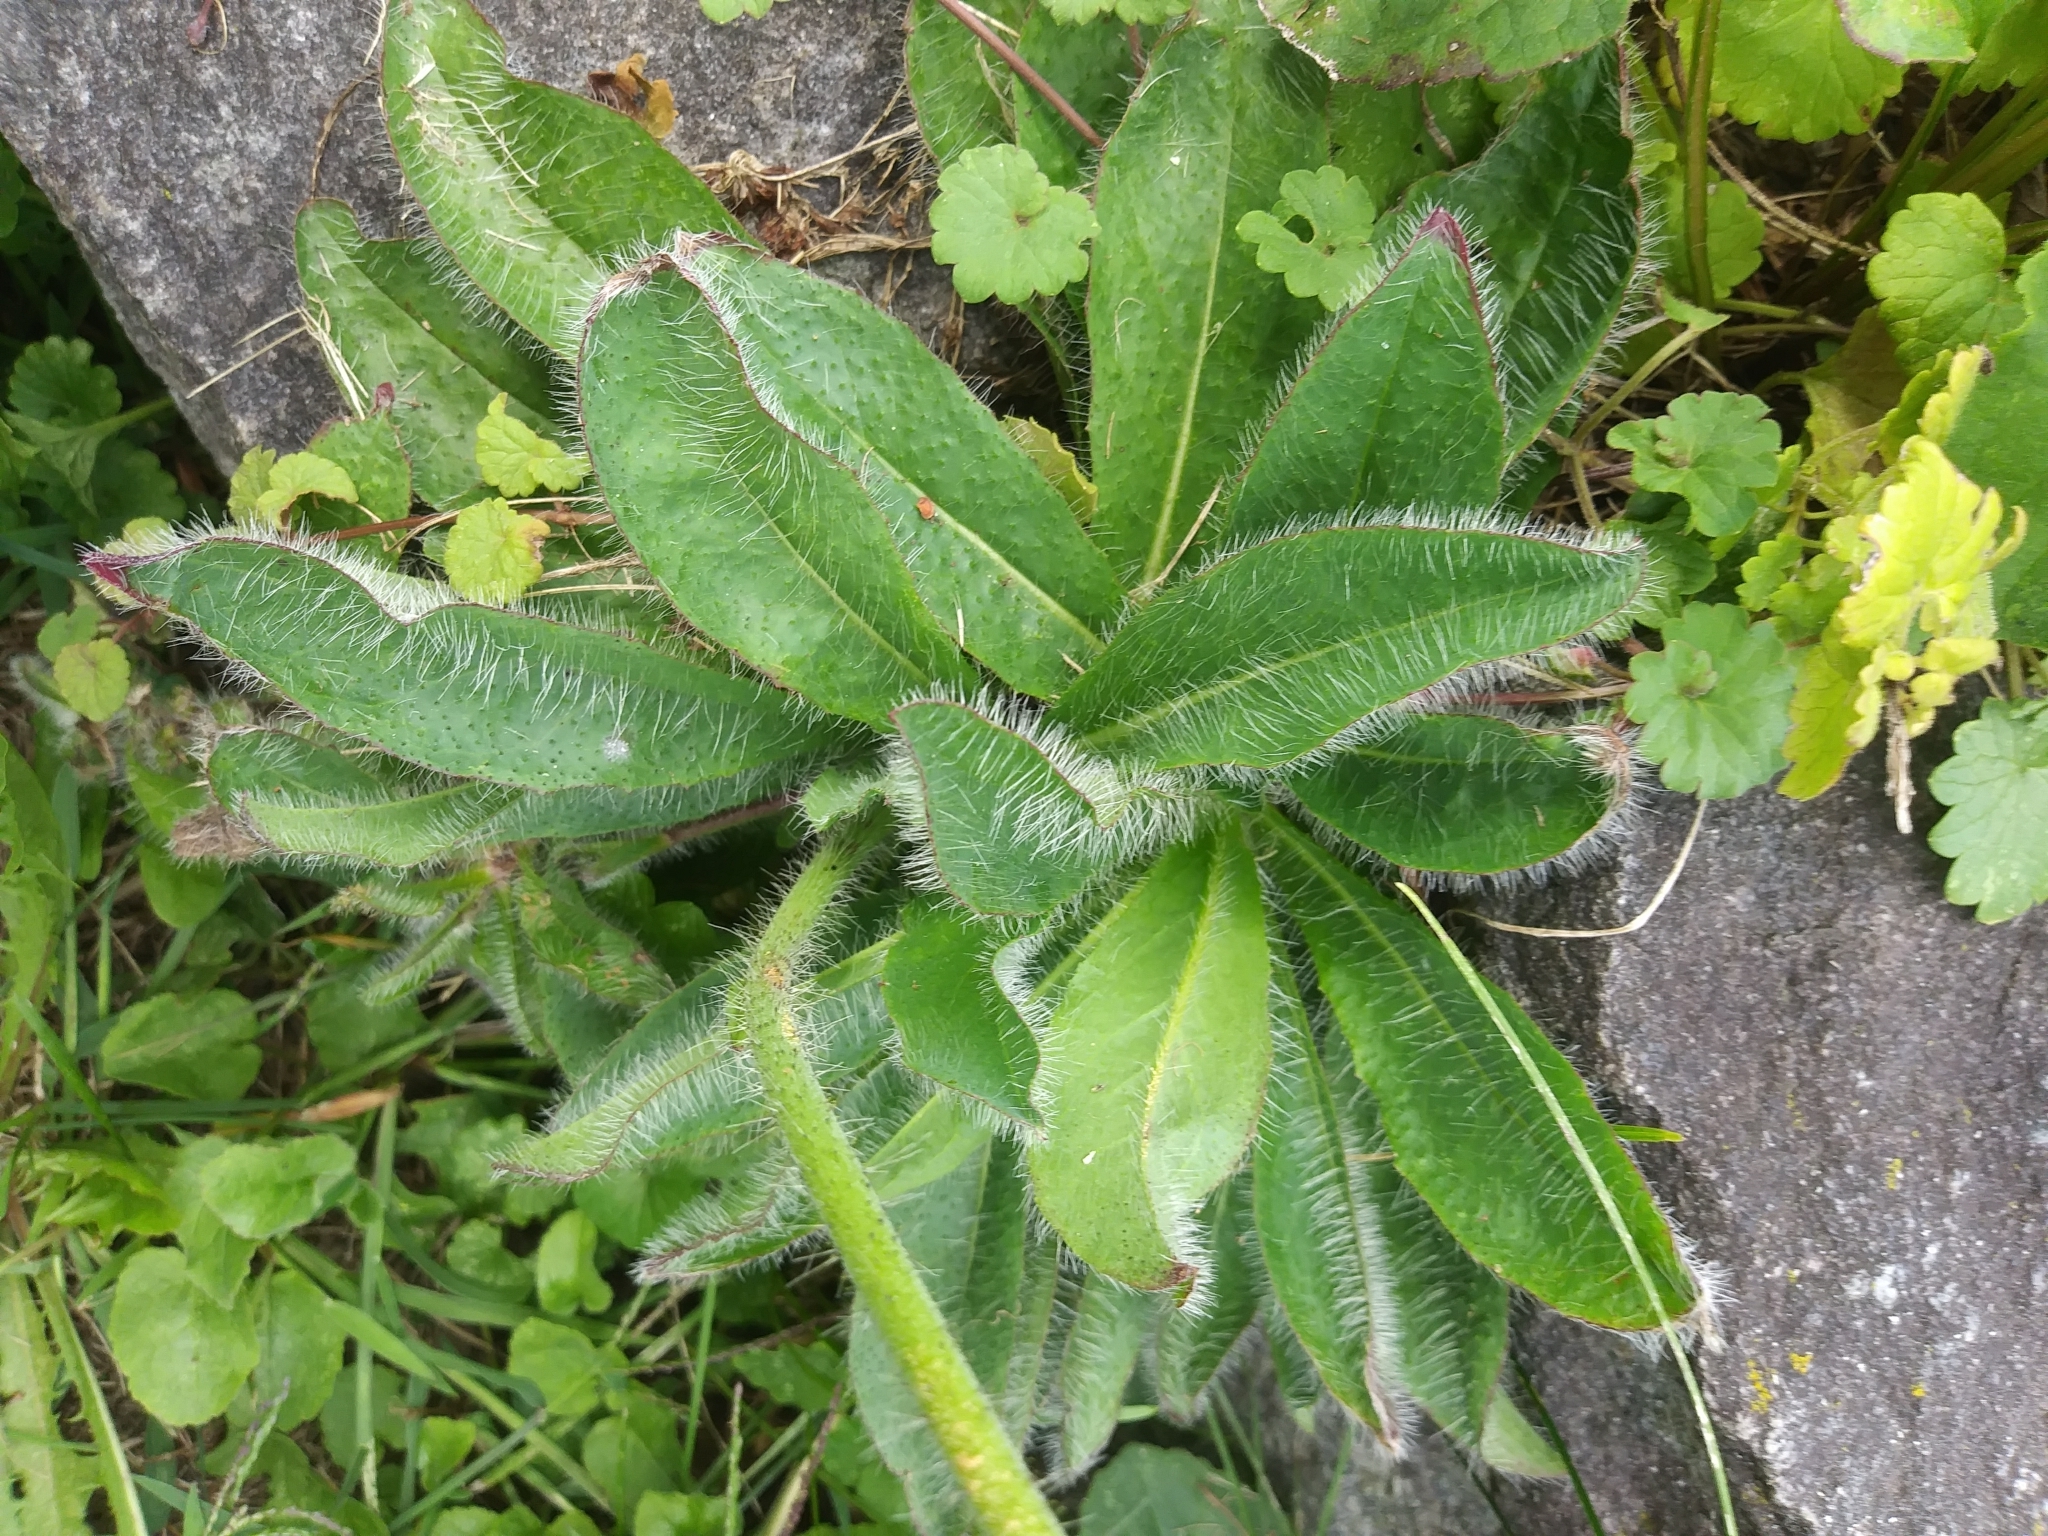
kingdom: Plantae
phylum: Tracheophyta
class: Magnoliopsida
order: Asterales
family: Asteraceae
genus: Pilosella
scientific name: Pilosella aurantiaca
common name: Fox-and-cubs
